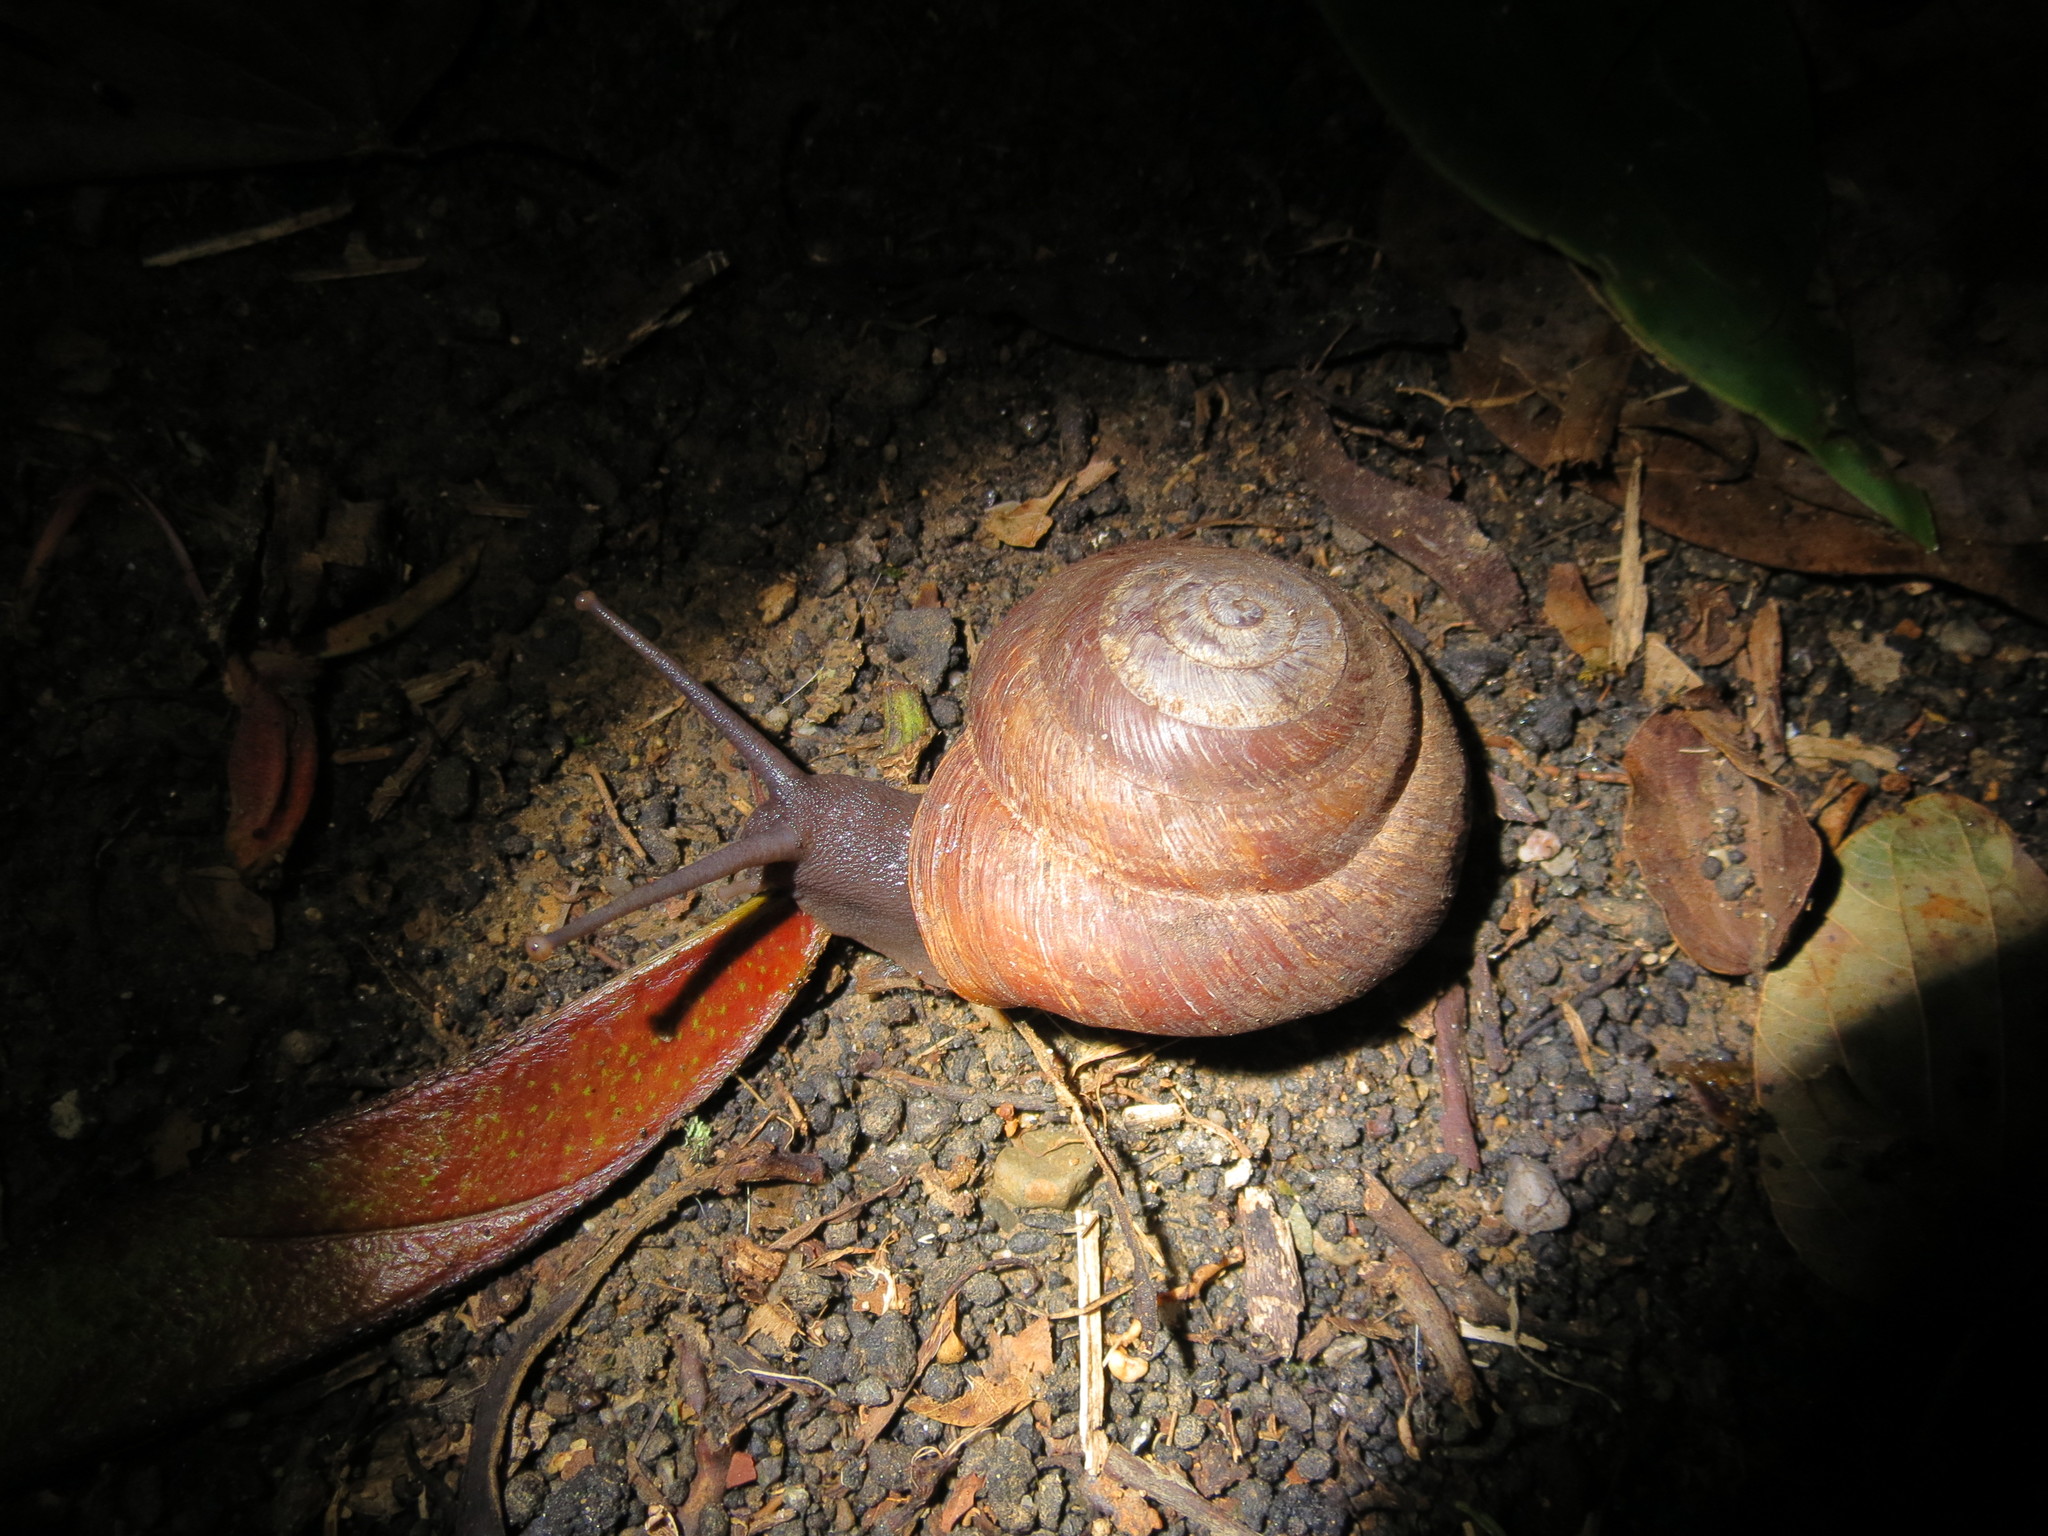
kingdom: Animalia
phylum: Mollusca
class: Gastropoda
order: Stylommatophora
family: Solaropsidae
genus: Caracolus
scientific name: Caracolus carocolla
